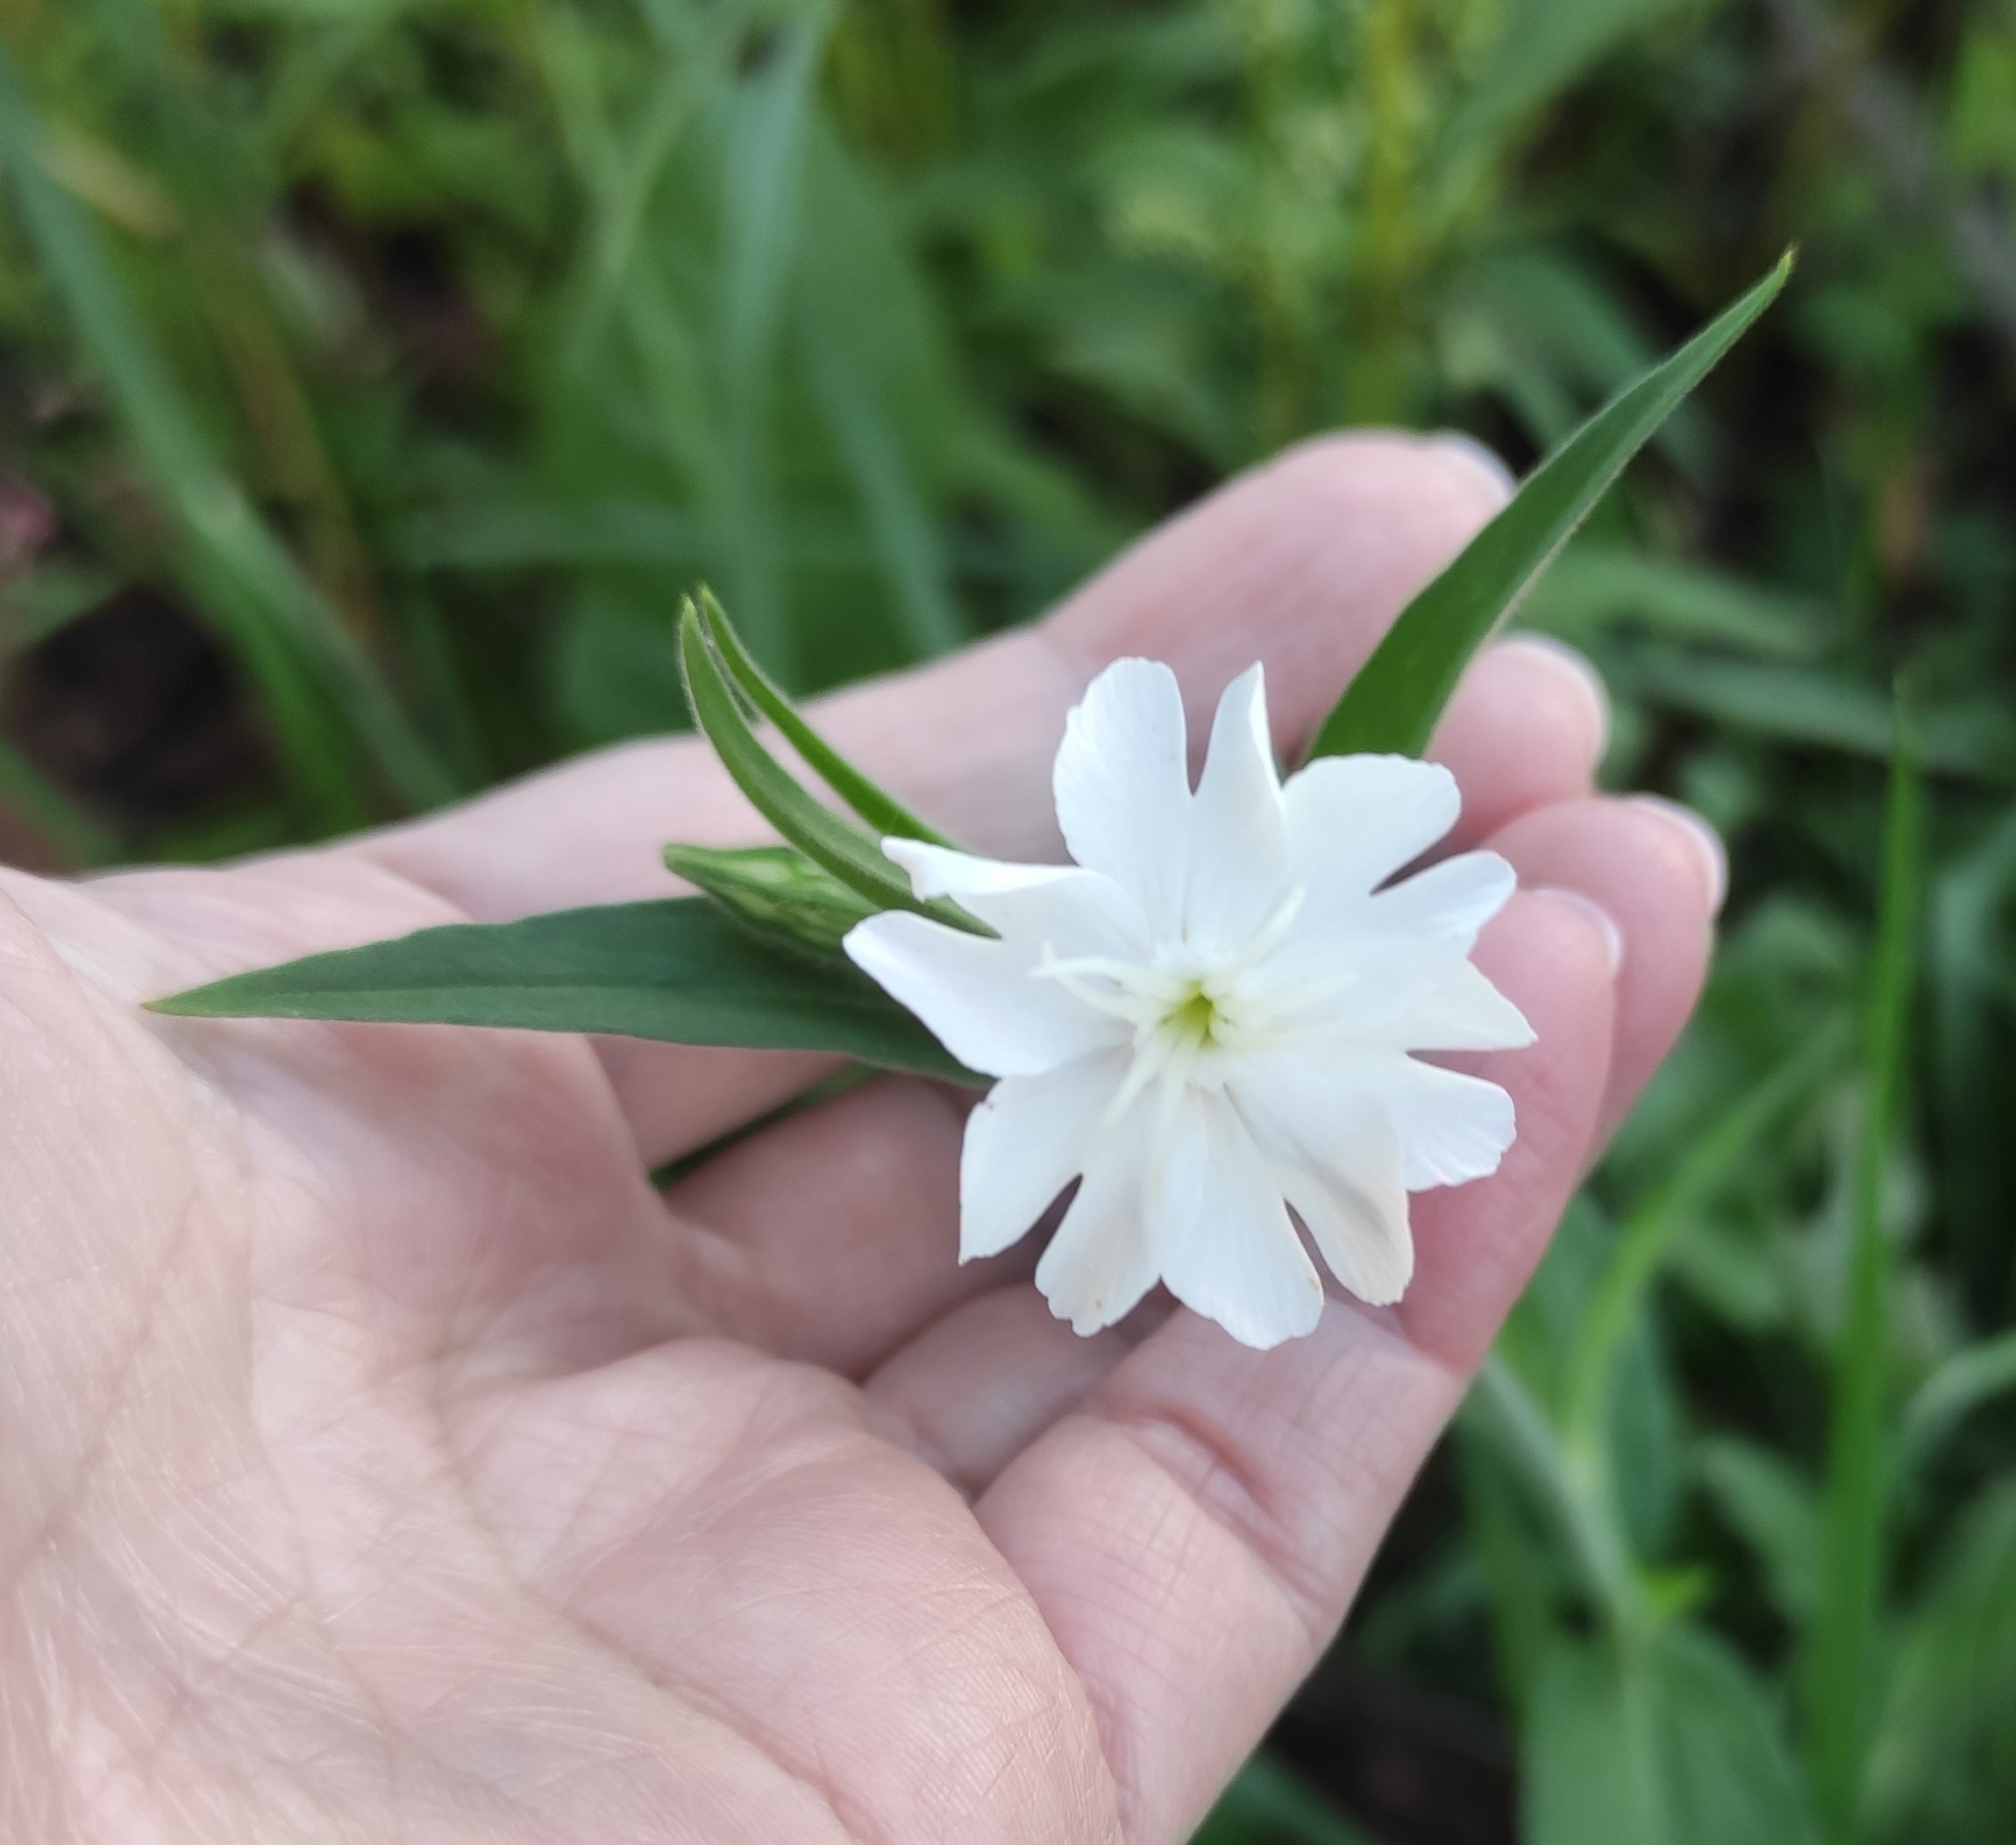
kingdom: Plantae
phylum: Tracheophyta
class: Magnoliopsida
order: Caryophyllales
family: Caryophyllaceae
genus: Silene
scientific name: Silene latifolia
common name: White campion
